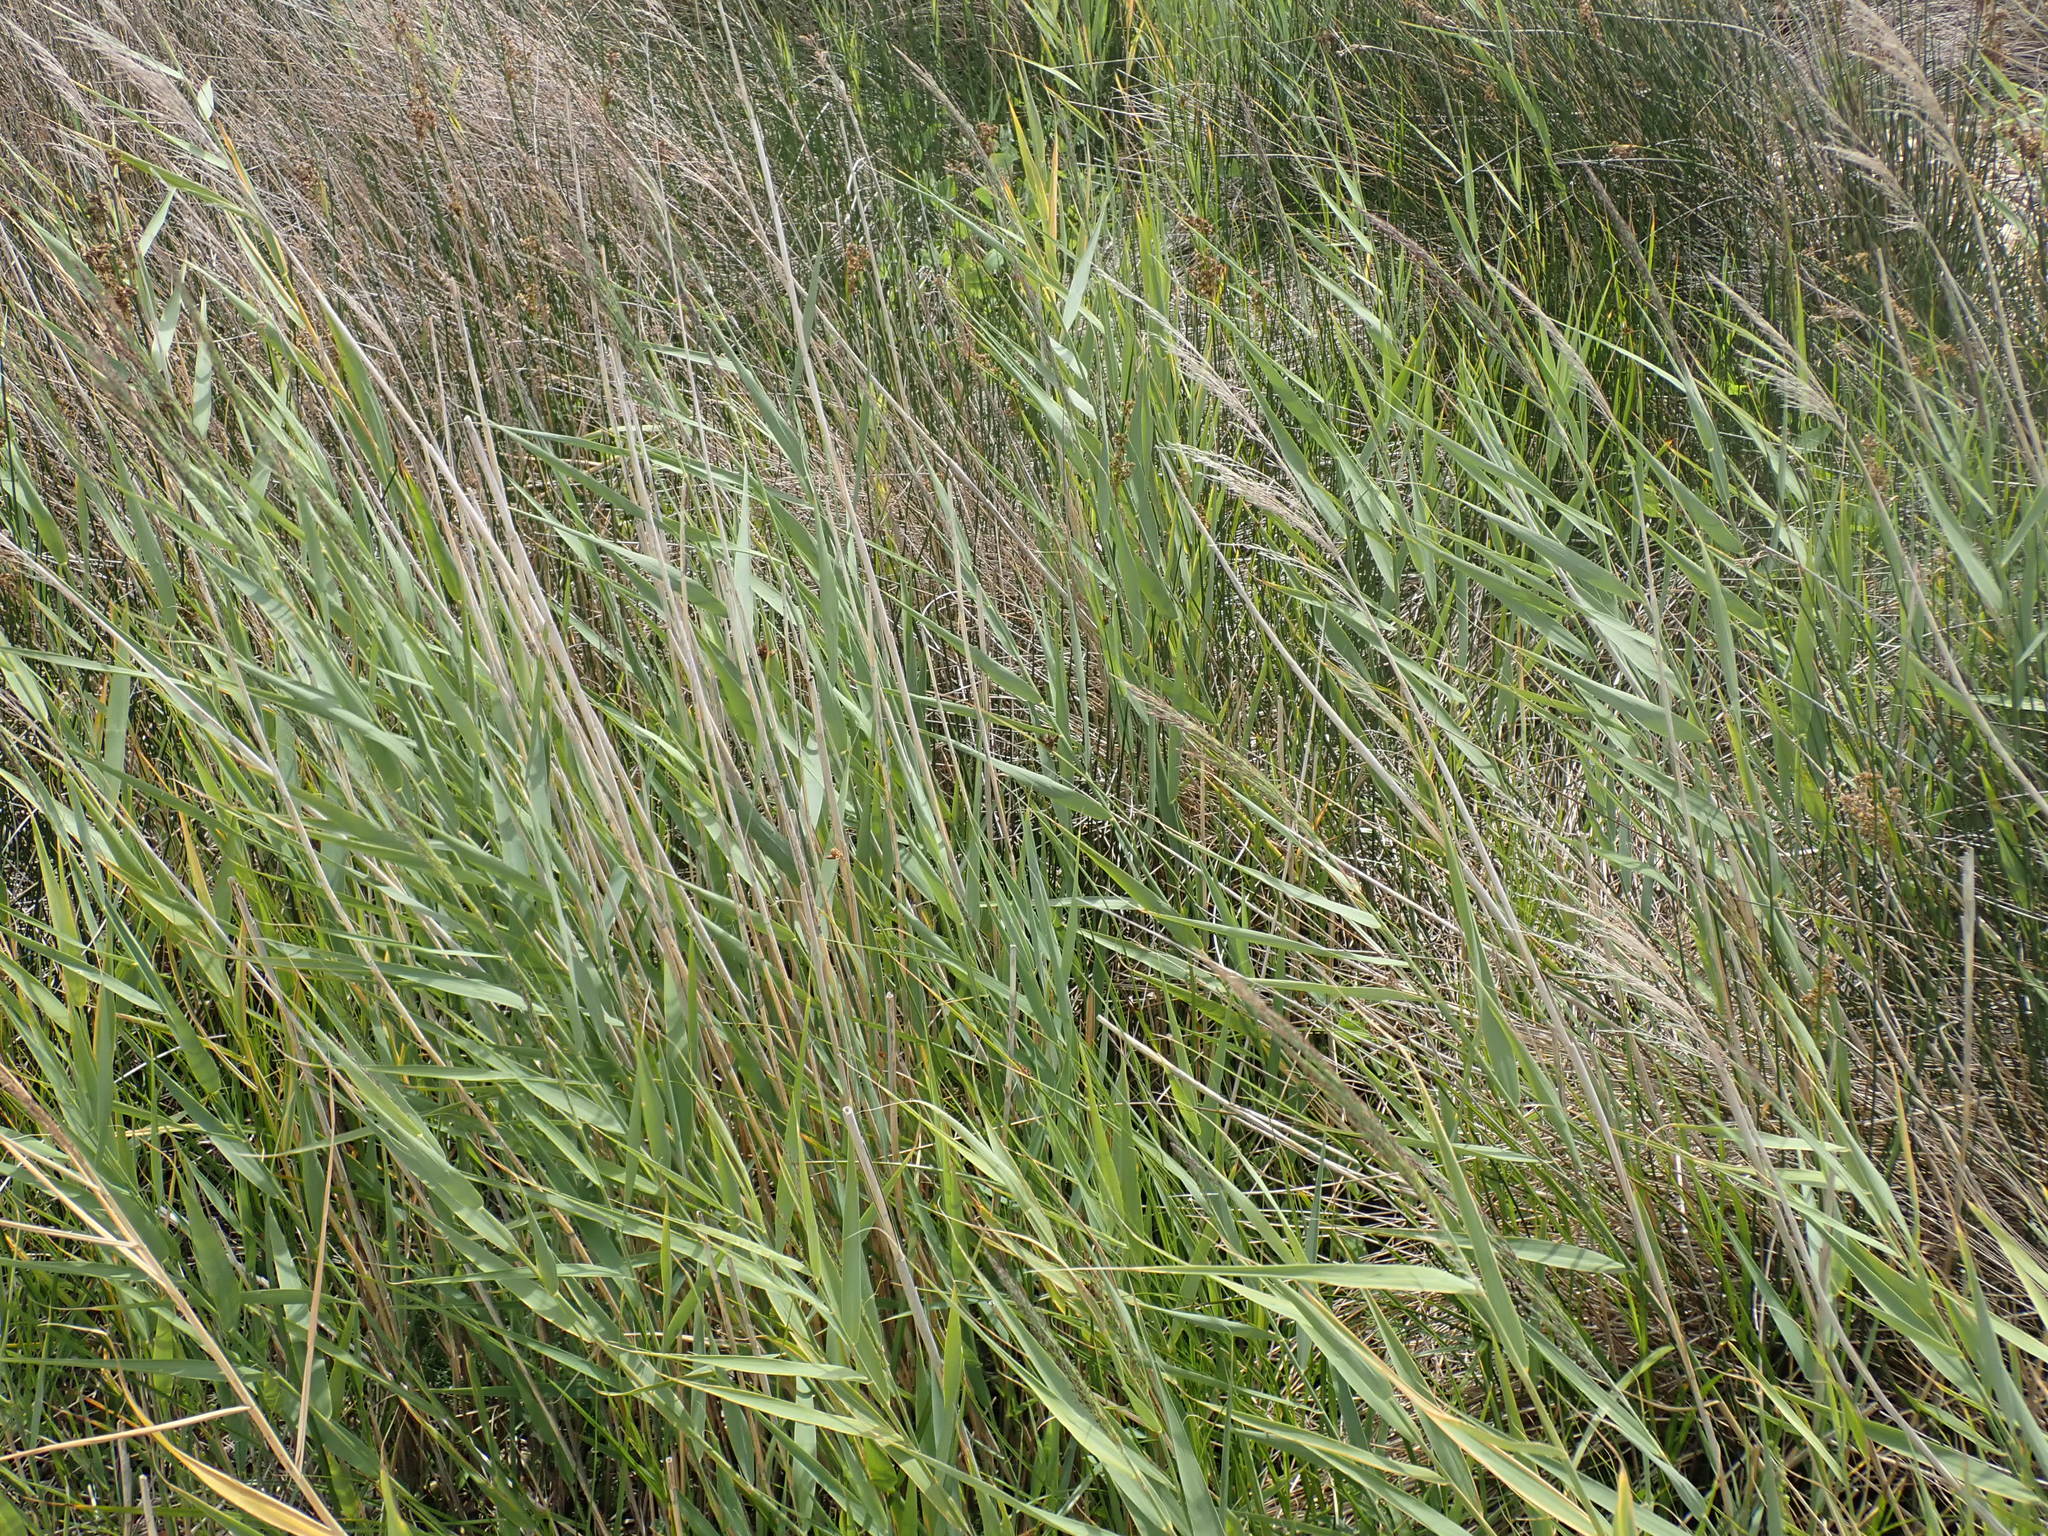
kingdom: Plantae
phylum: Tracheophyta
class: Liliopsida
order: Poales
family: Poaceae
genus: Phragmites
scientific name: Phragmites australis
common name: Common reed
